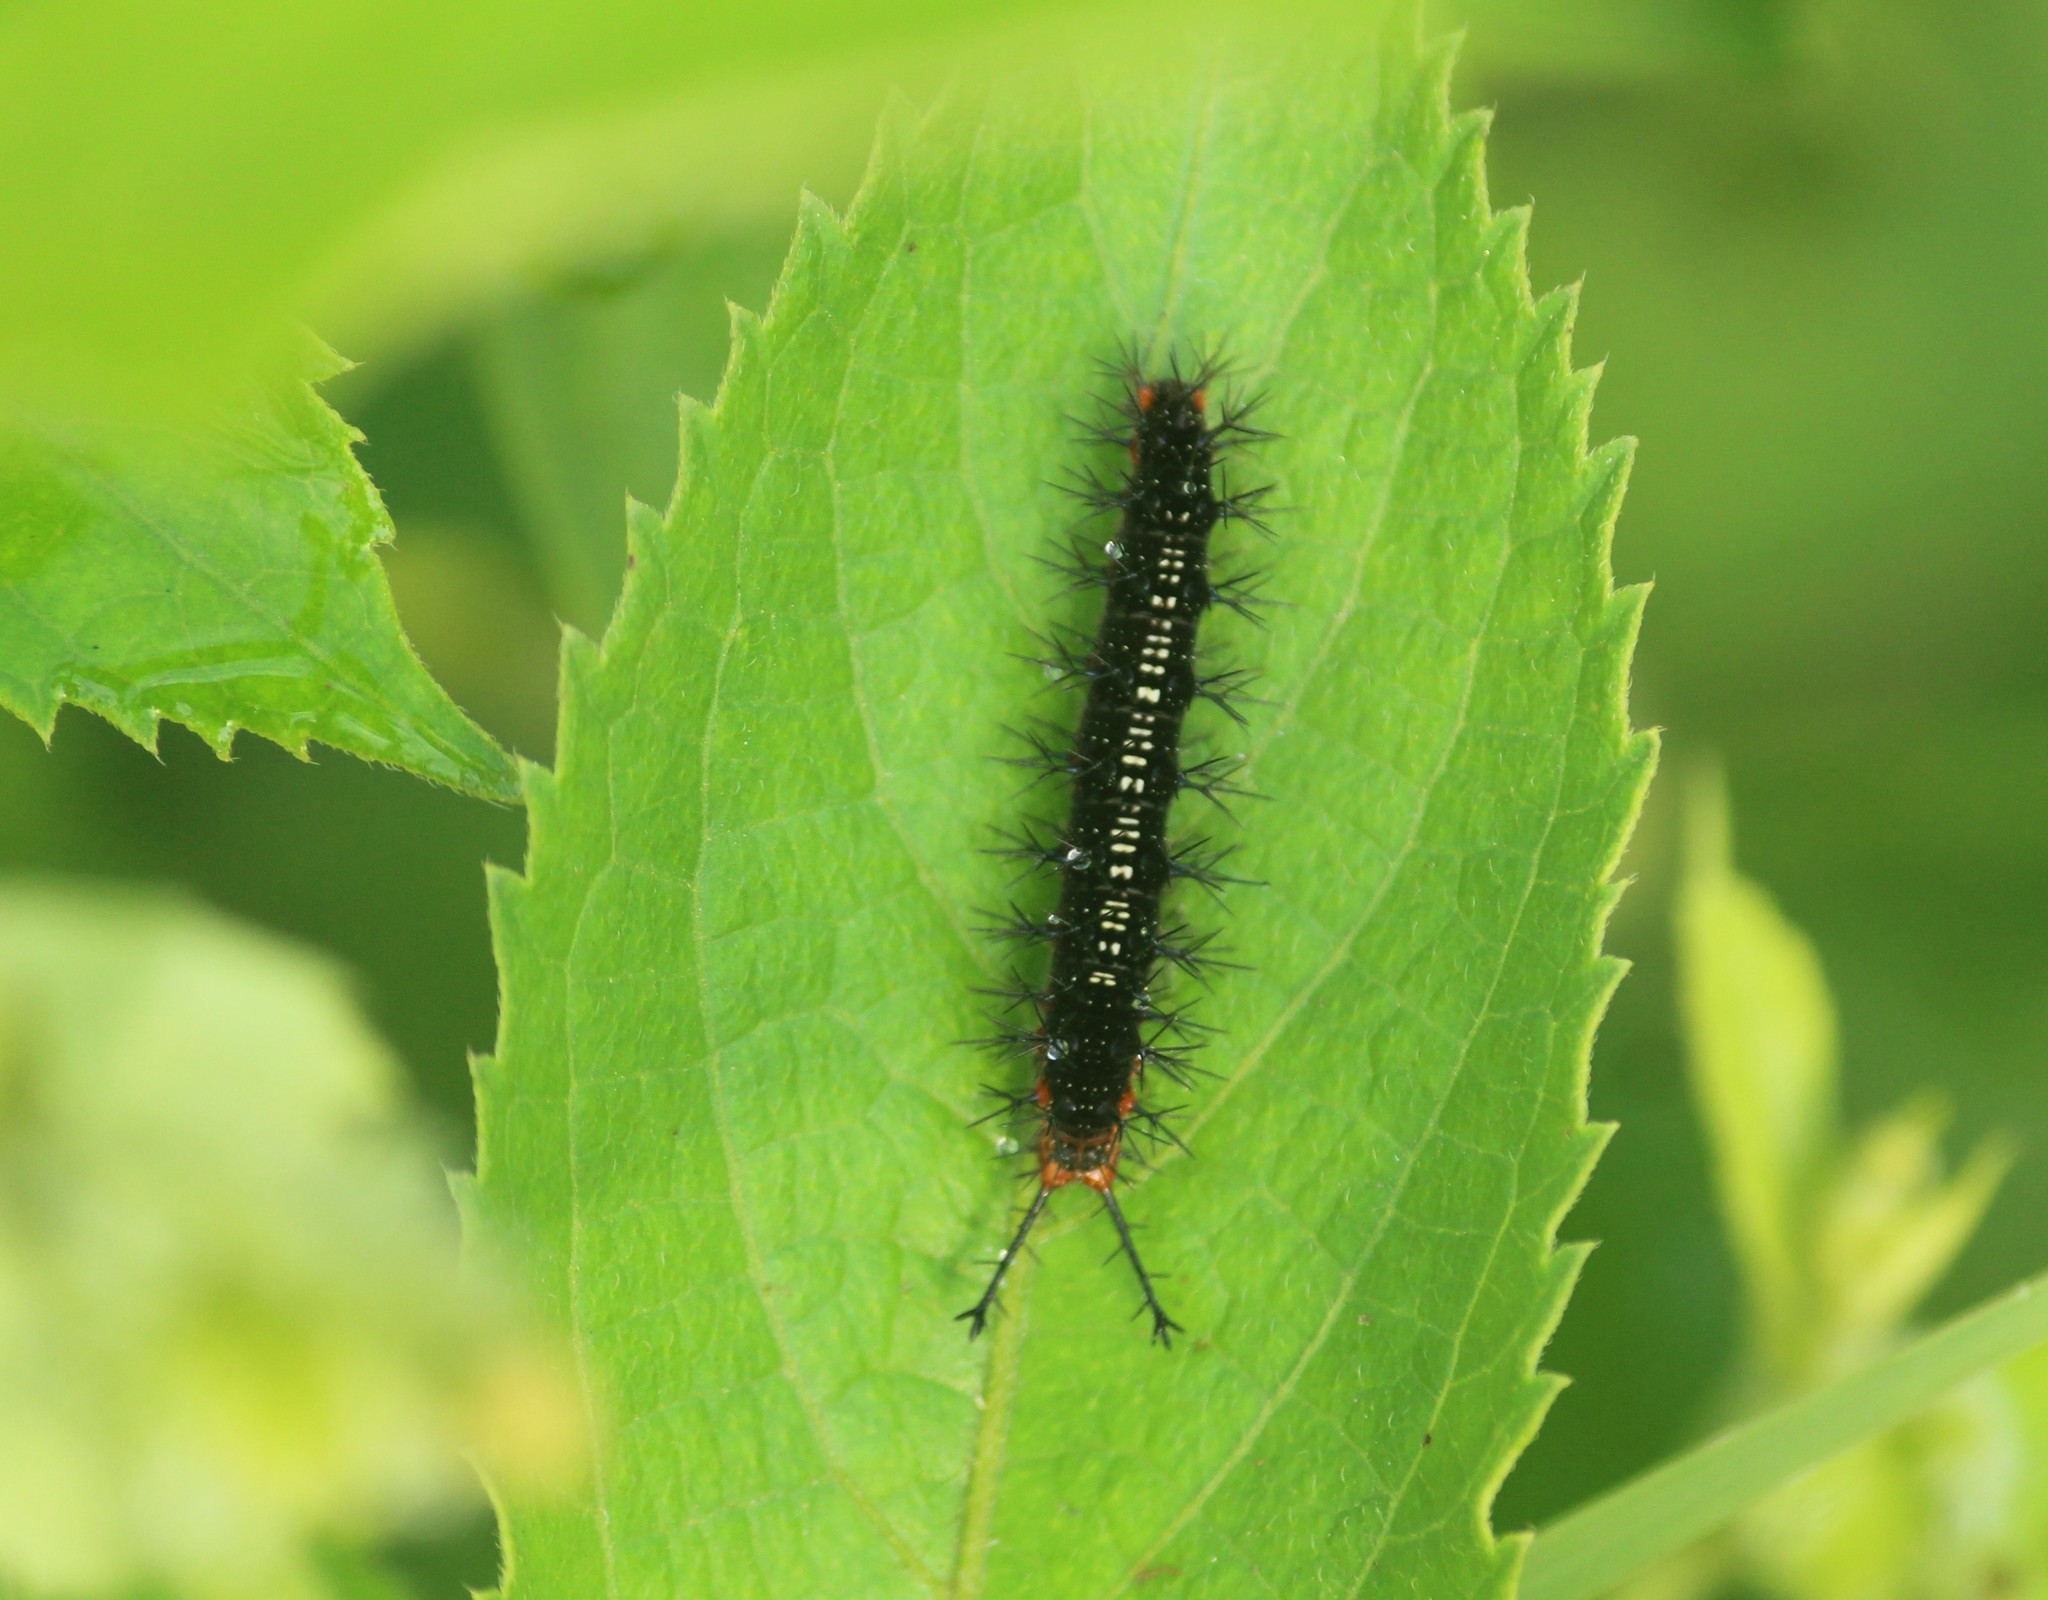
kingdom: Animalia
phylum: Arthropoda
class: Insecta
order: Lepidoptera
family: Nymphalidae
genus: Ariadne
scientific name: Ariadne ariadne
